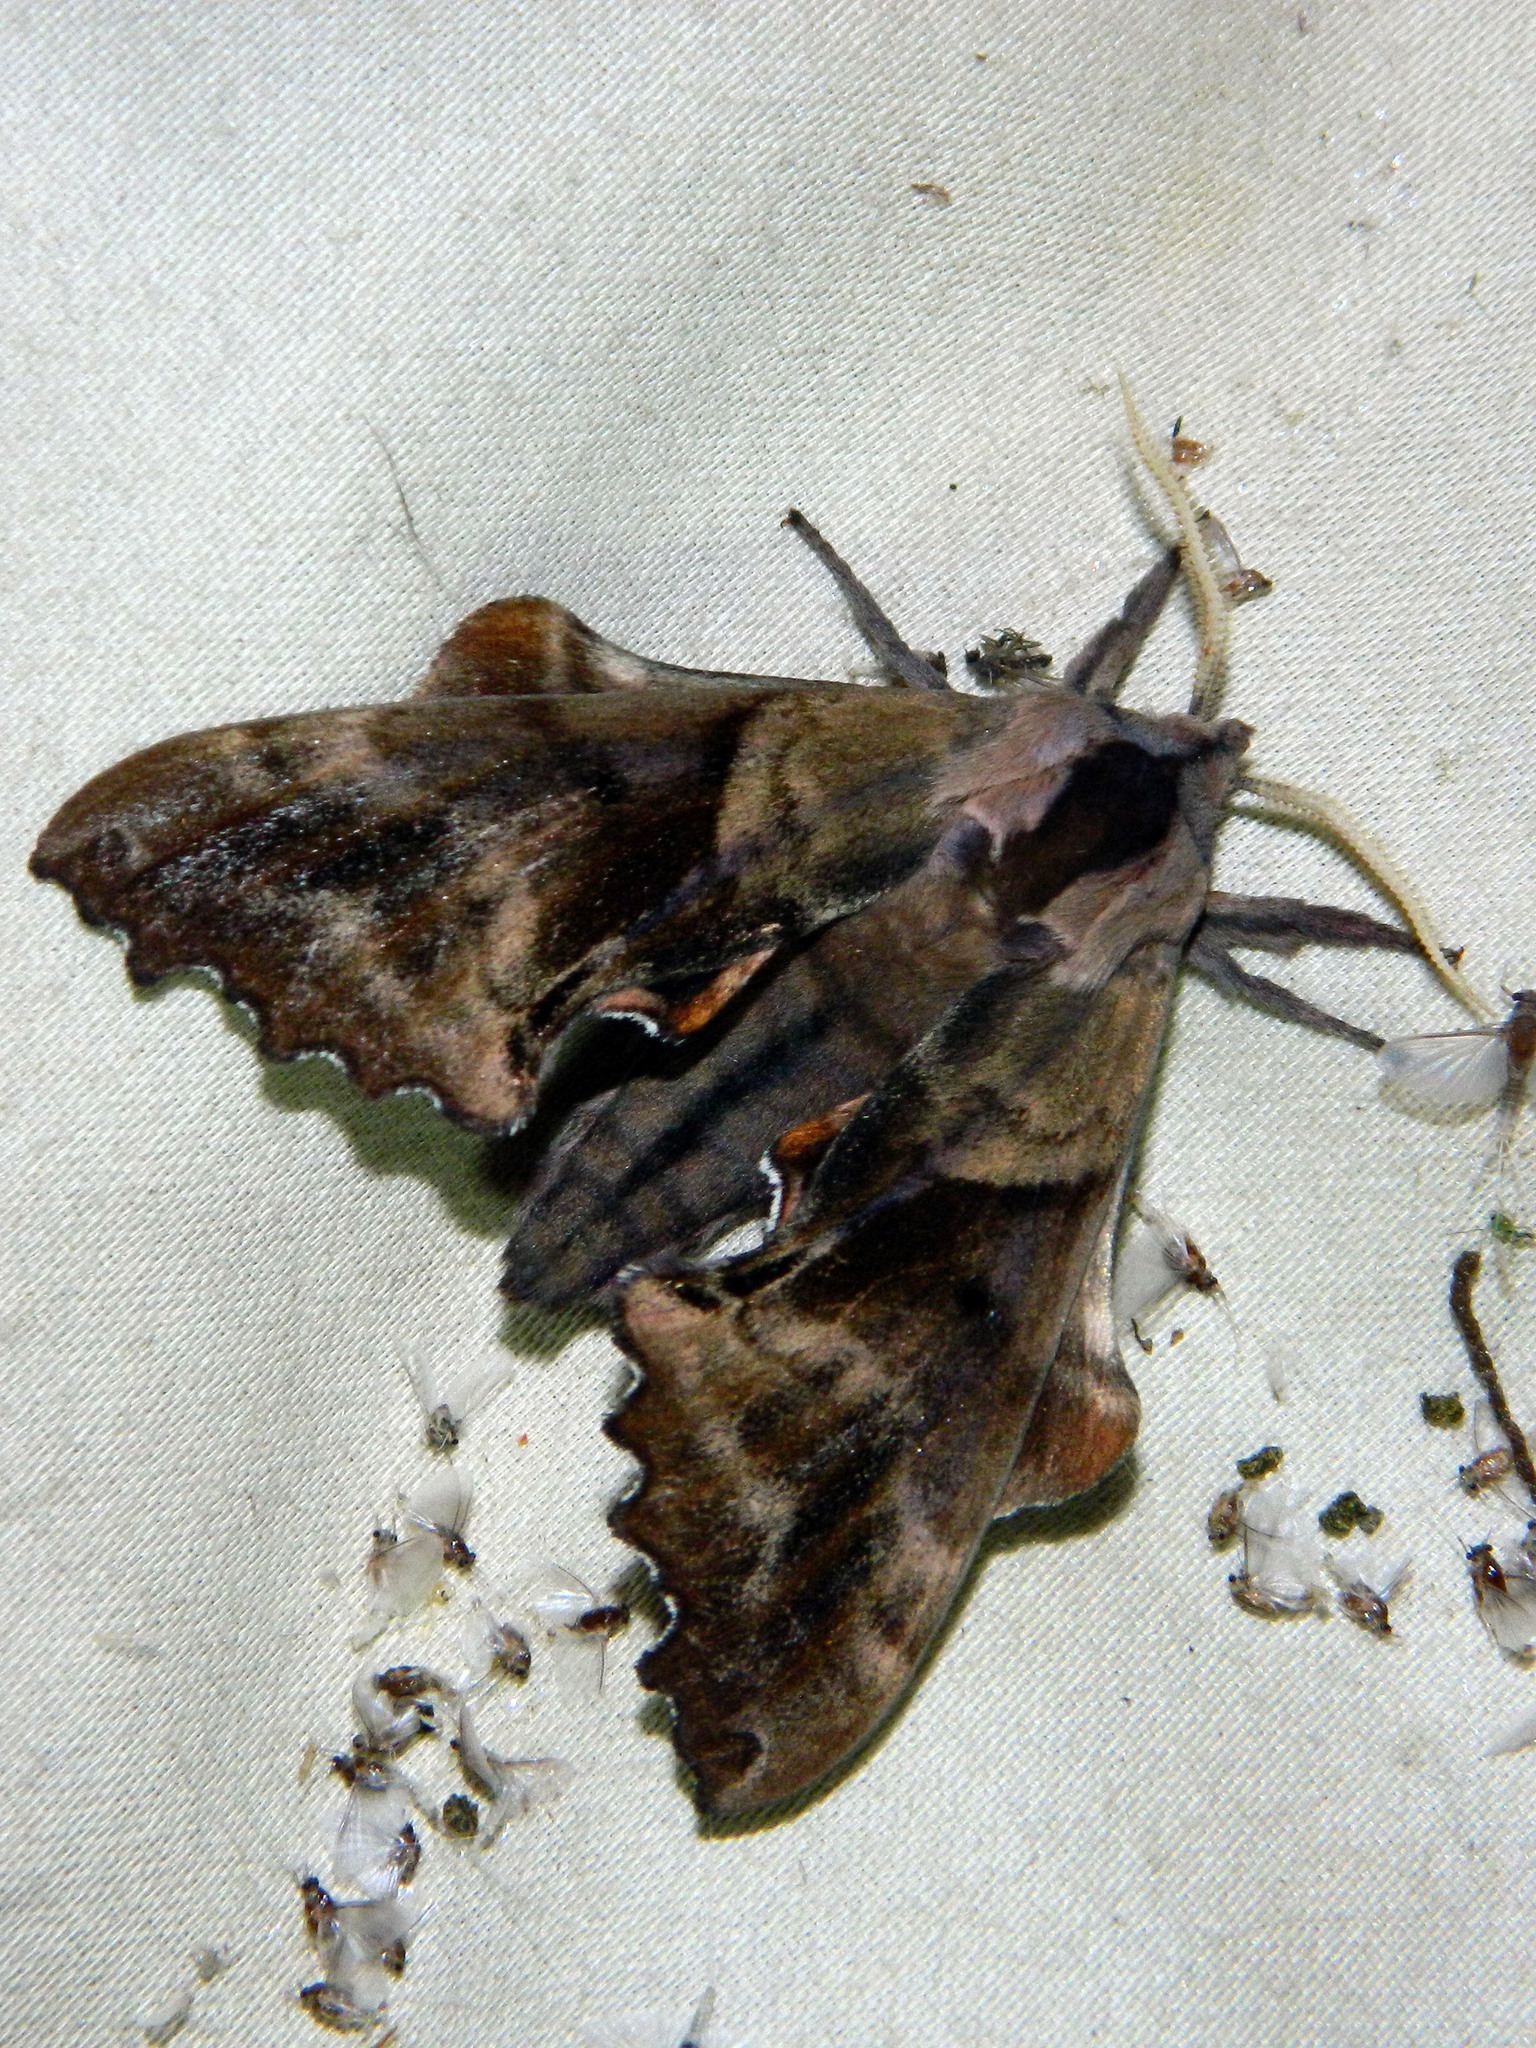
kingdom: Animalia
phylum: Arthropoda
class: Insecta
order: Lepidoptera
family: Sphingidae
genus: Paonias
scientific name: Paonias excaecata
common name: Blind-eyed sphinx
